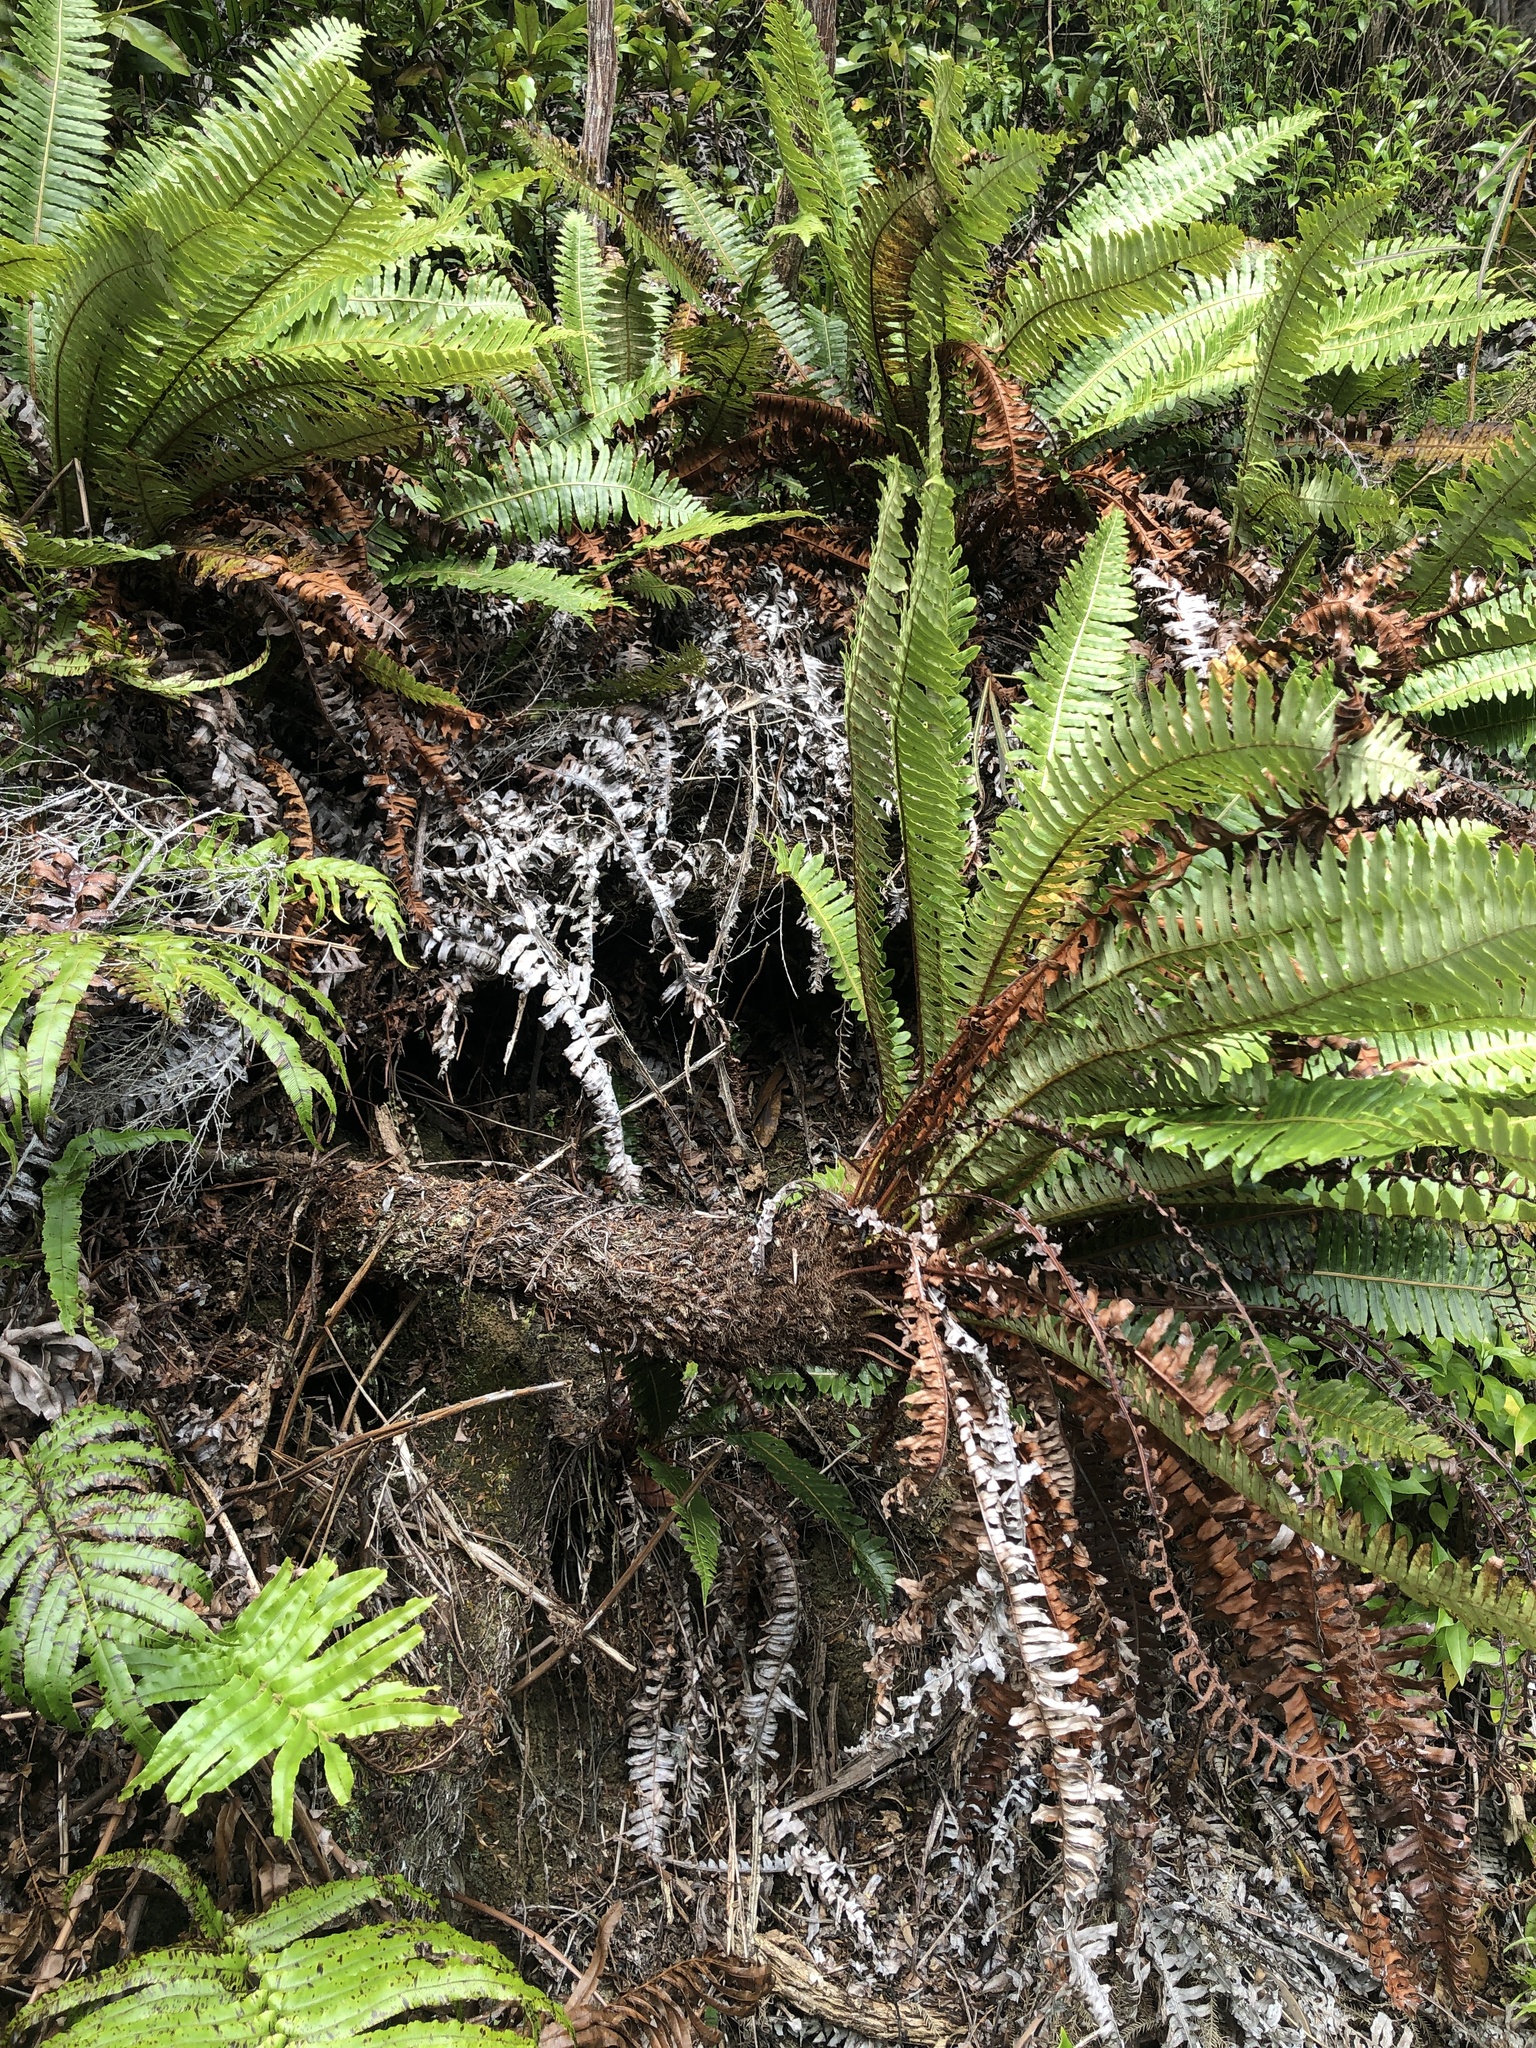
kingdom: Plantae
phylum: Tracheophyta
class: Polypodiopsida
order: Polypodiales
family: Blechnaceae
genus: Lomaria
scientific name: Lomaria discolor
